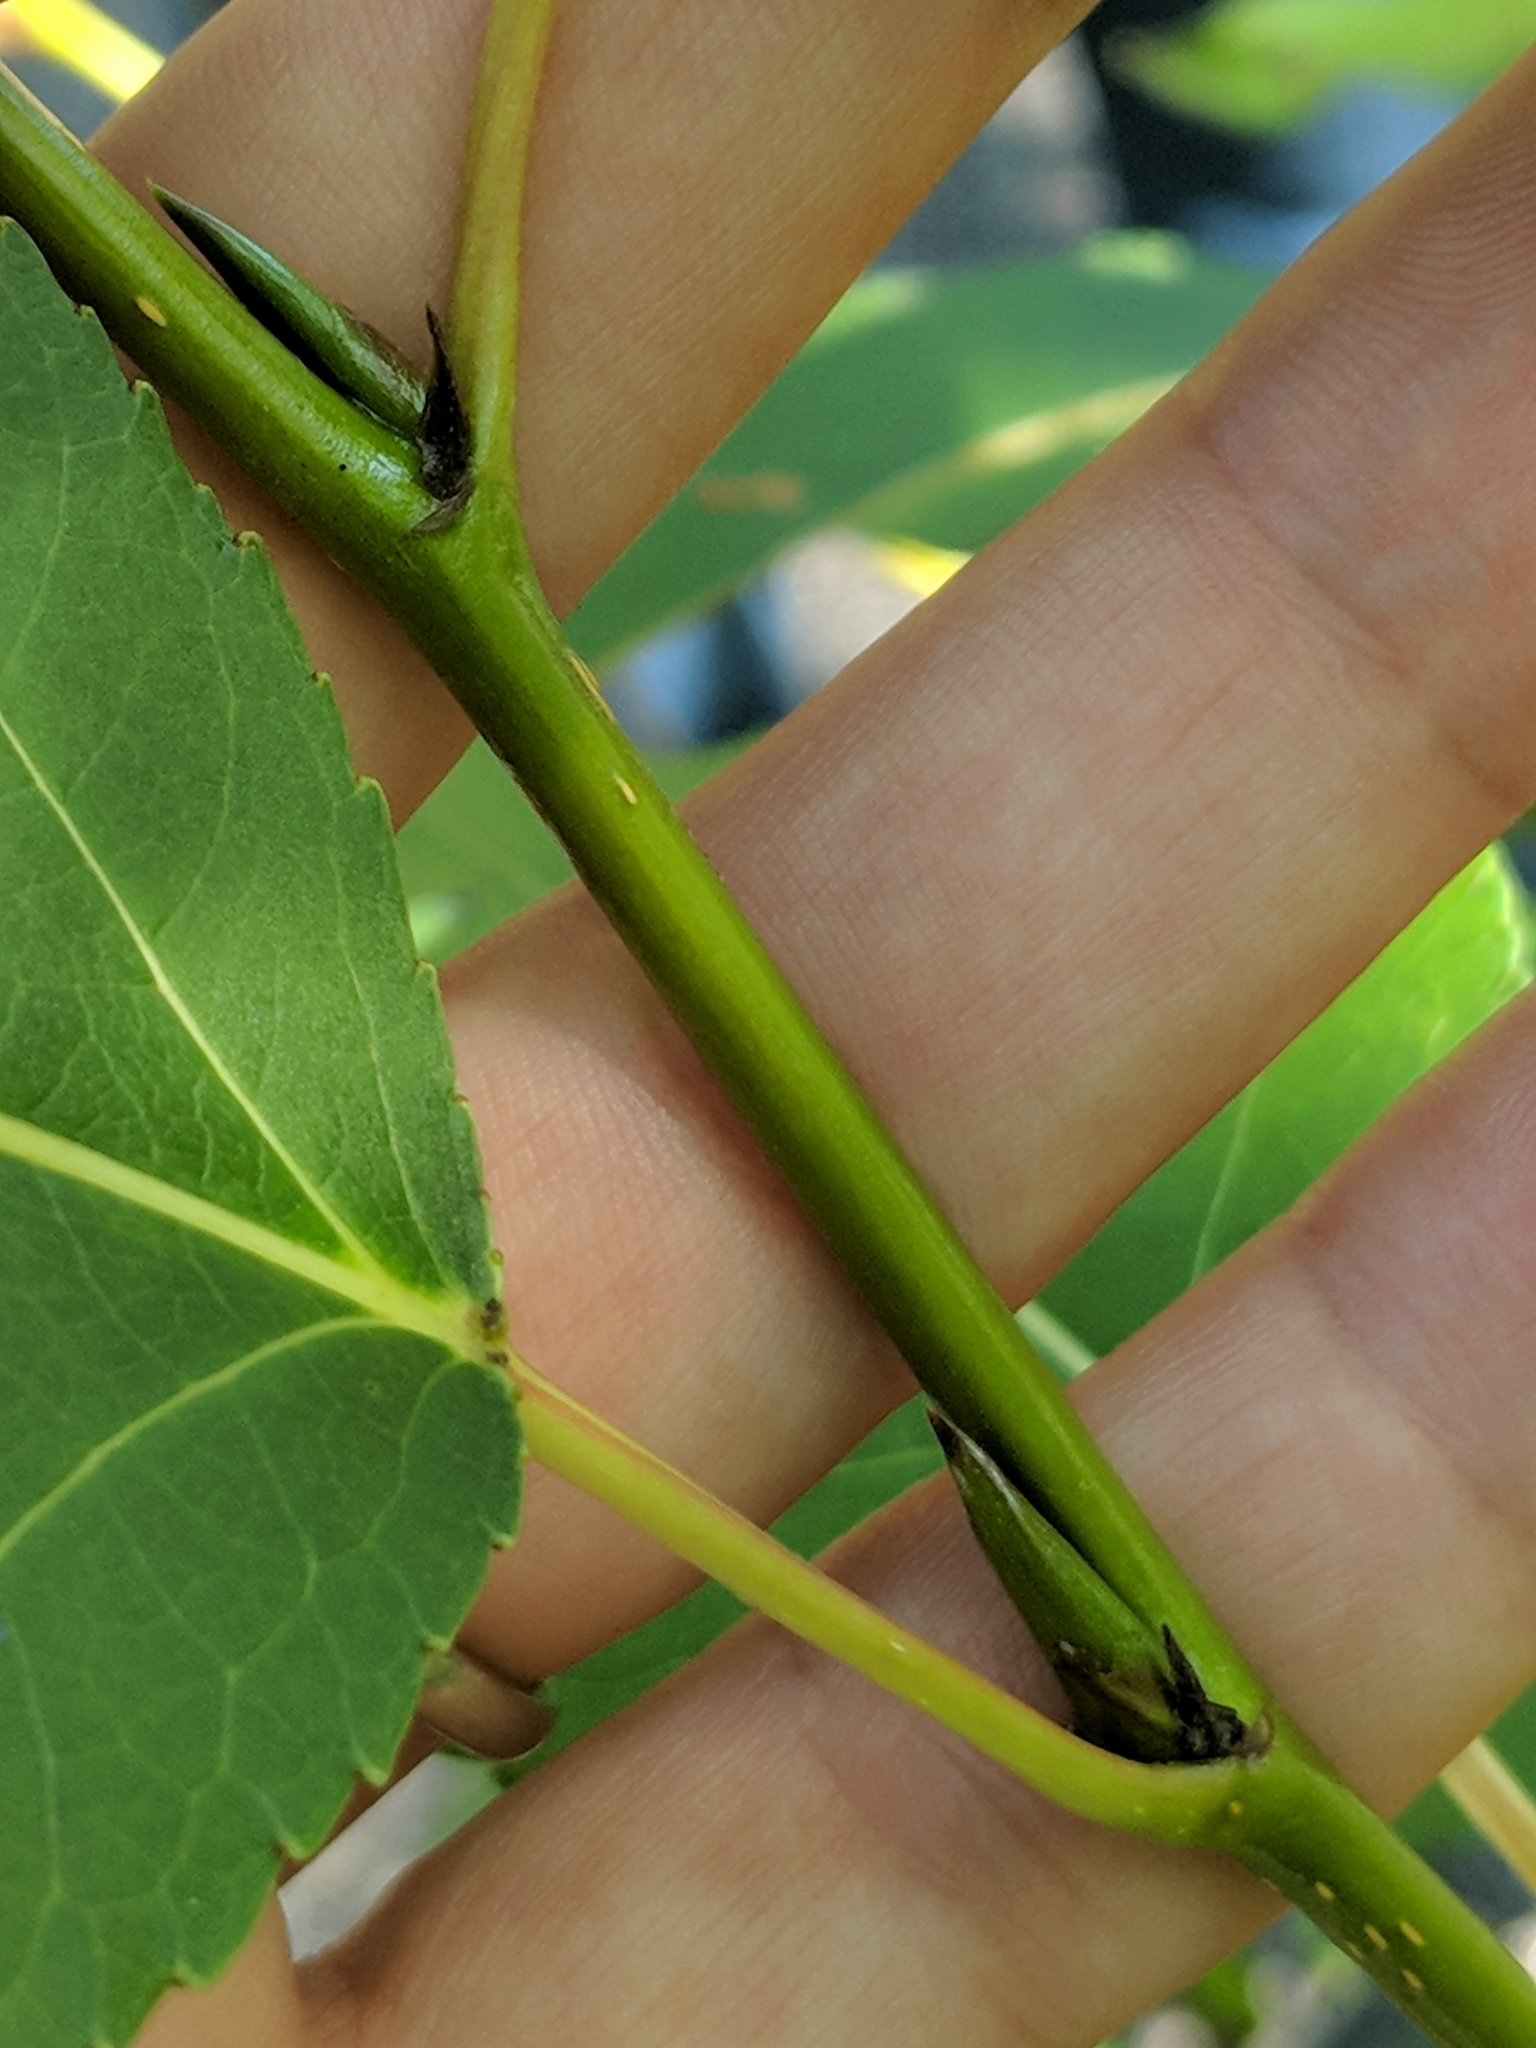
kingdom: Plantae
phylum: Tracheophyta
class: Magnoliopsida
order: Malpighiales
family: Salicaceae
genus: Populus
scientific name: Populus balsamifera
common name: Balsam poplar
